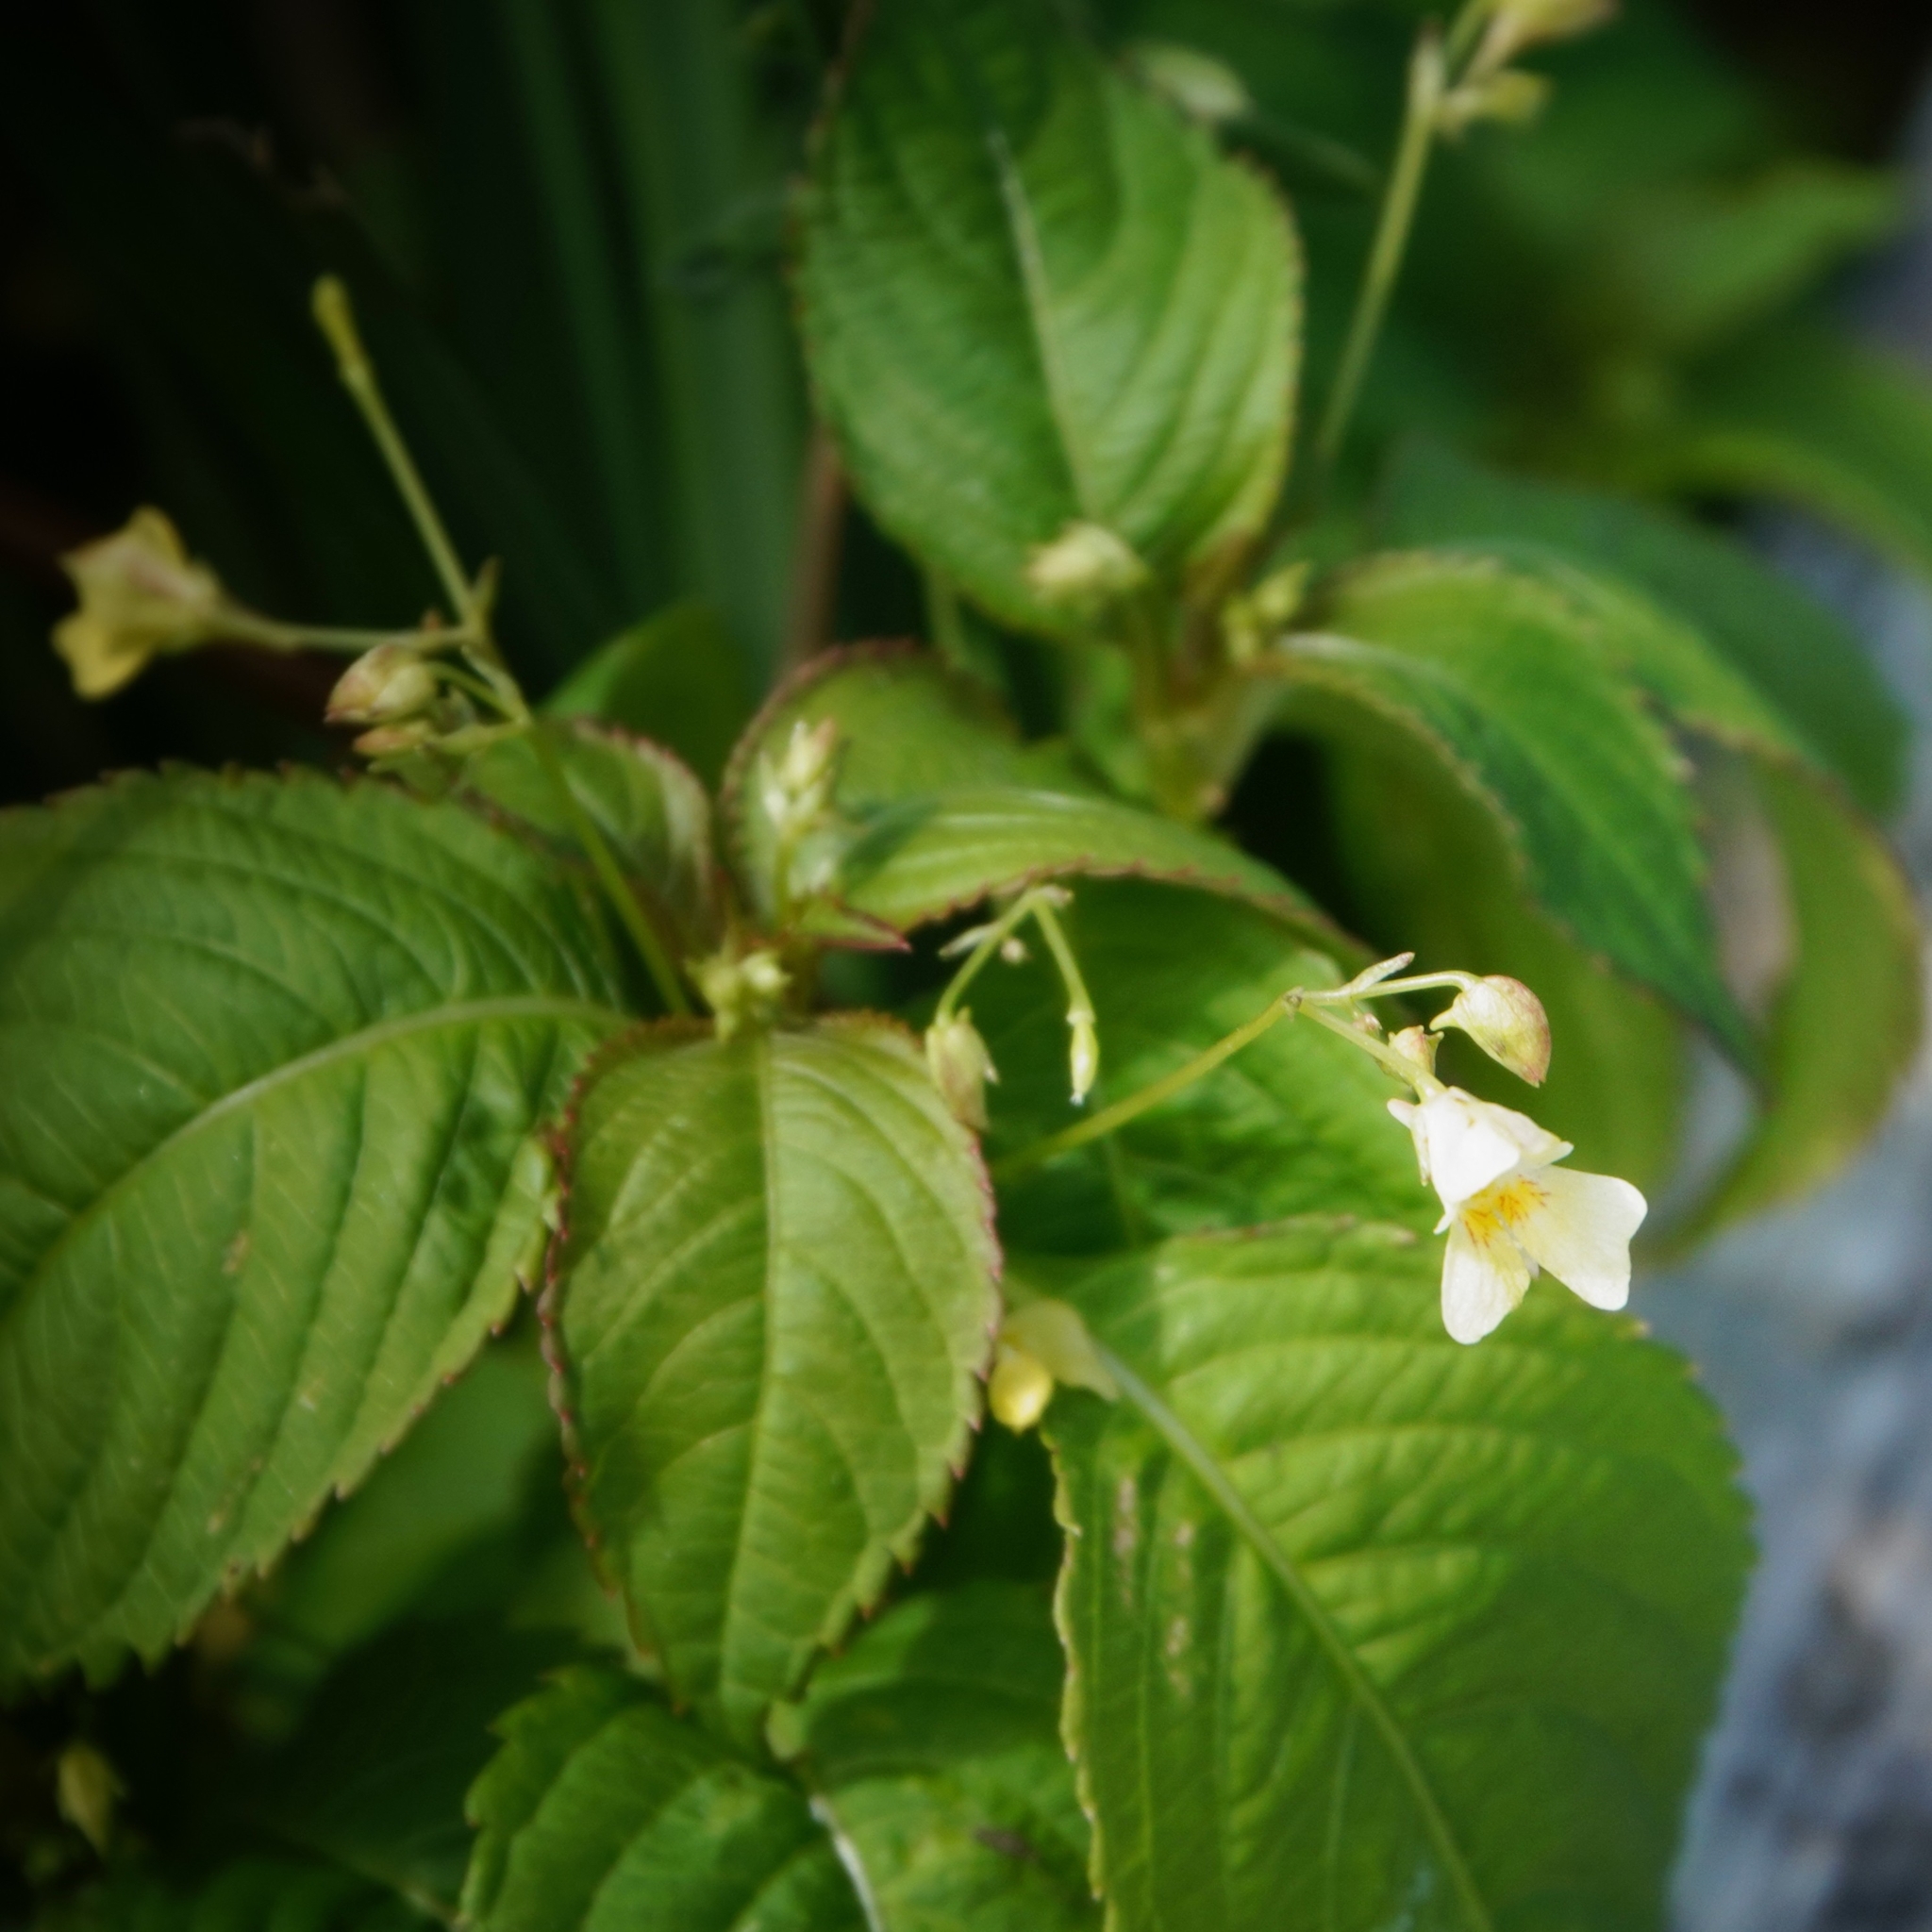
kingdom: Plantae
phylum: Tracheophyta
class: Magnoliopsida
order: Ericales
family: Balsaminaceae
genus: Impatiens
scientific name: Impatiens parviflora
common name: Small balsam
